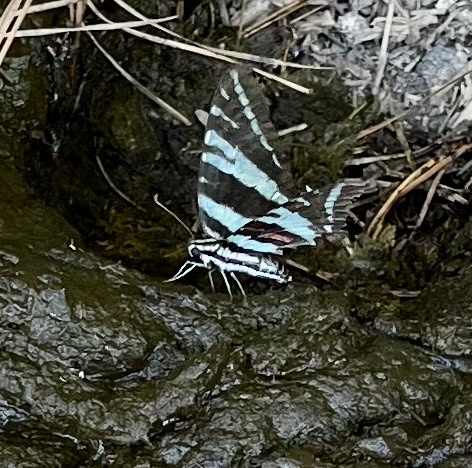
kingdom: Animalia
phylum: Arthropoda
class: Insecta
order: Lepidoptera
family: Papilionidae
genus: Protographium
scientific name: Protographium marcellus
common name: Zebra swallowtail
